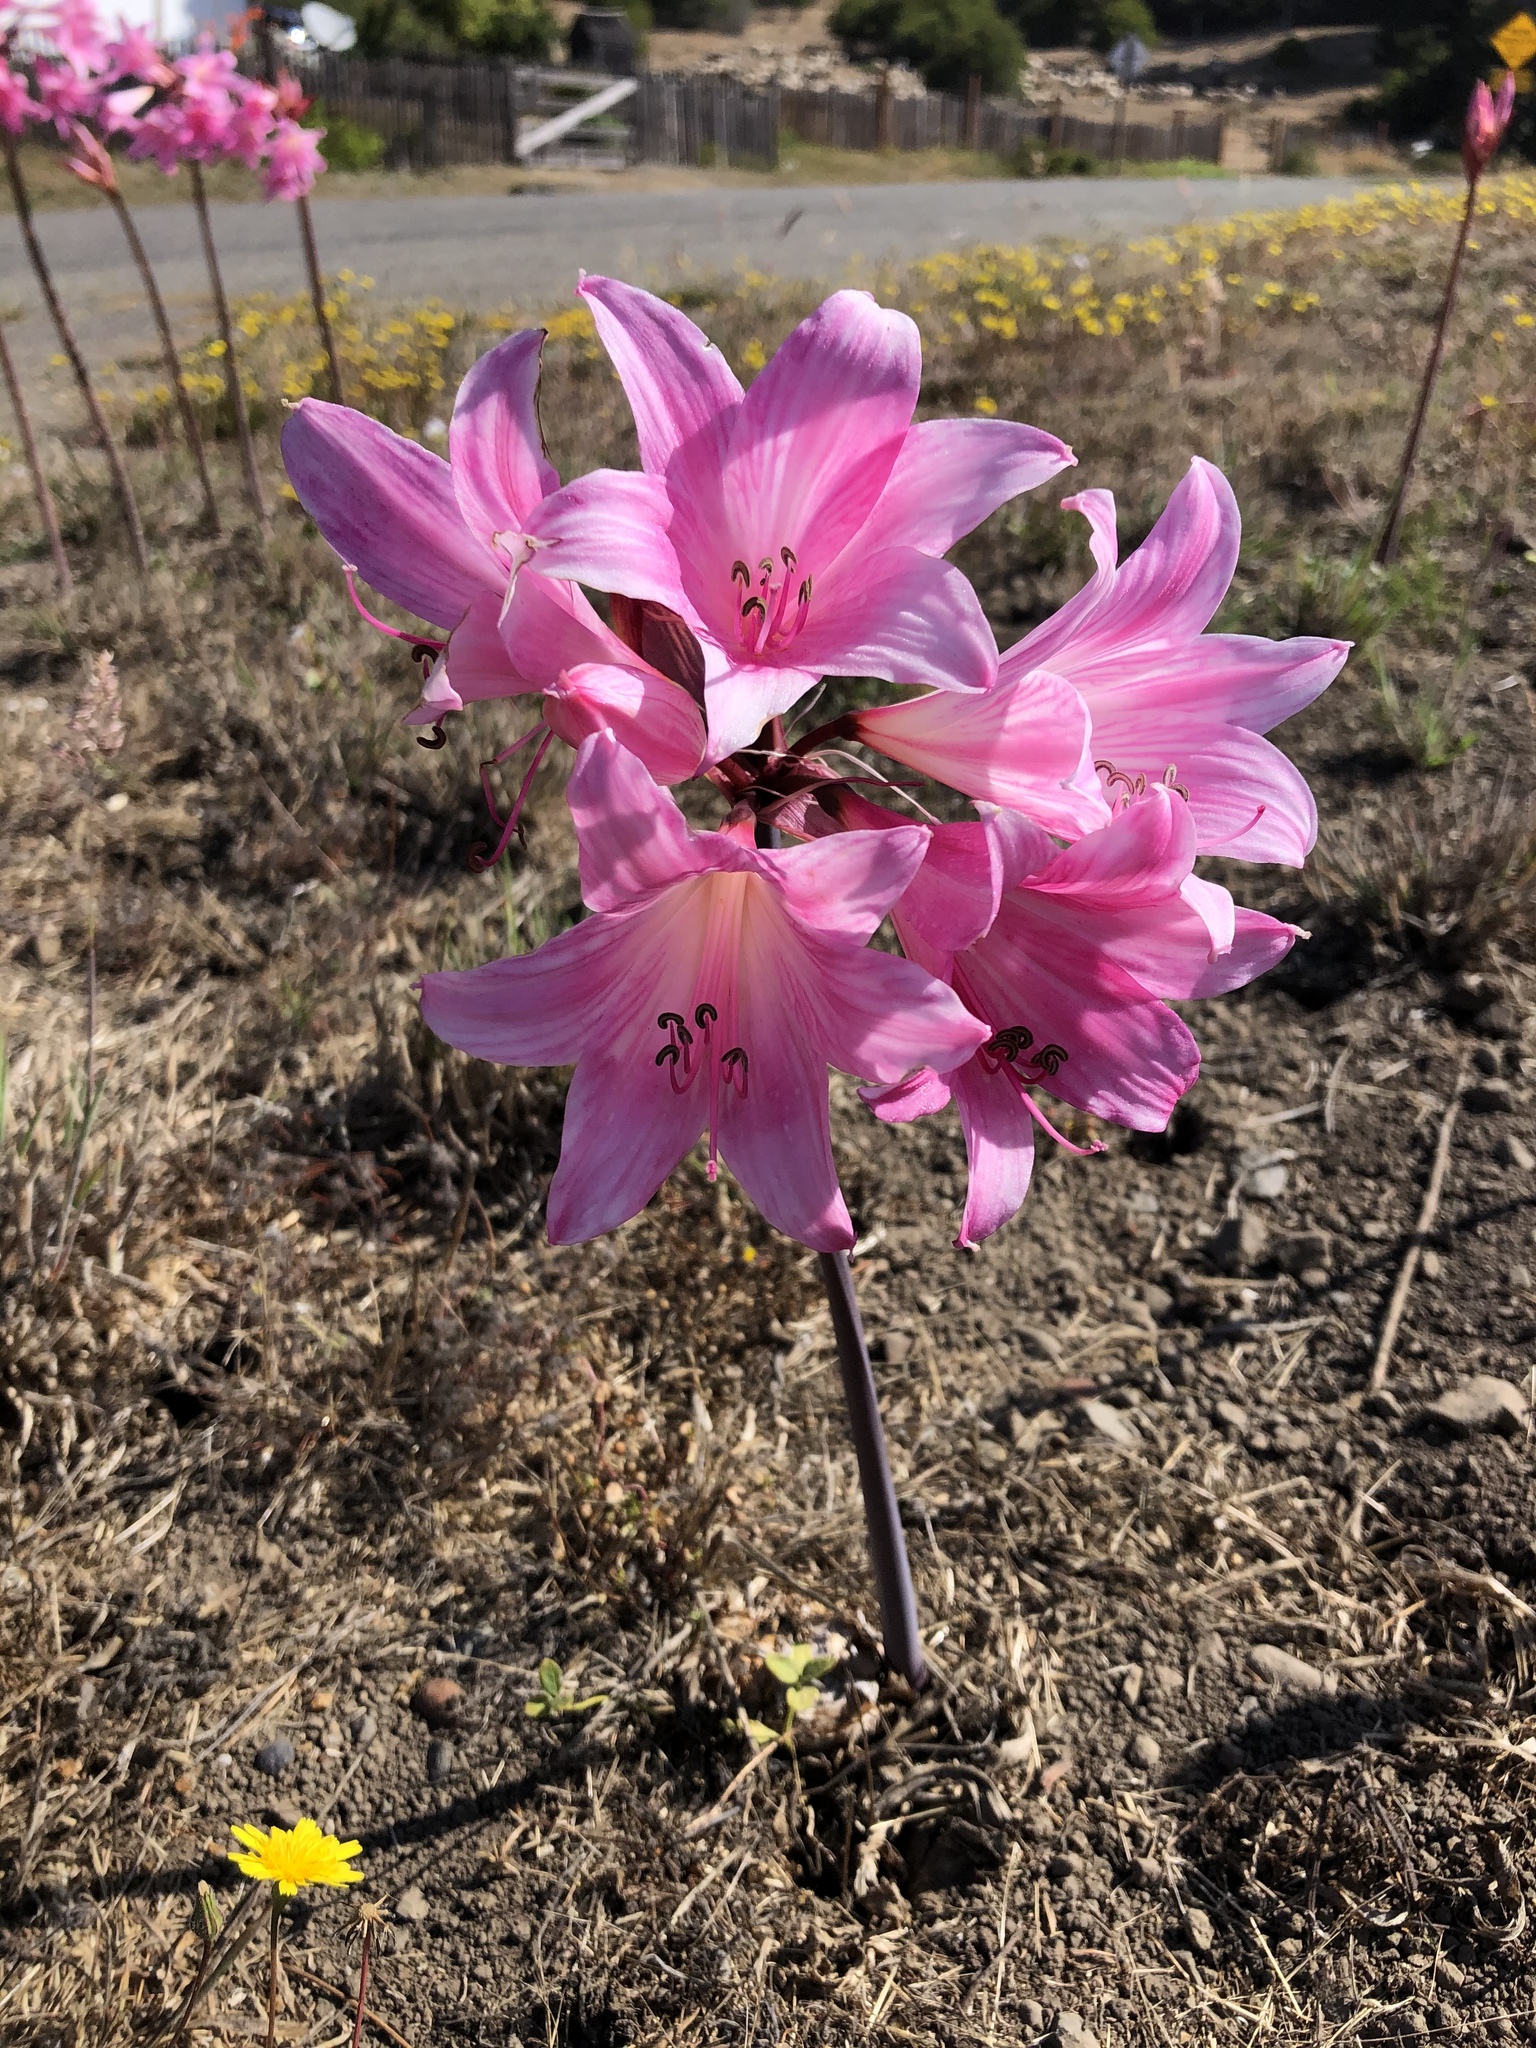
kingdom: Plantae
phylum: Tracheophyta
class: Liliopsida
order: Asparagales
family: Amaryllidaceae
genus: Amaryllis
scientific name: Amaryllis belladonna
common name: Jersey lily
